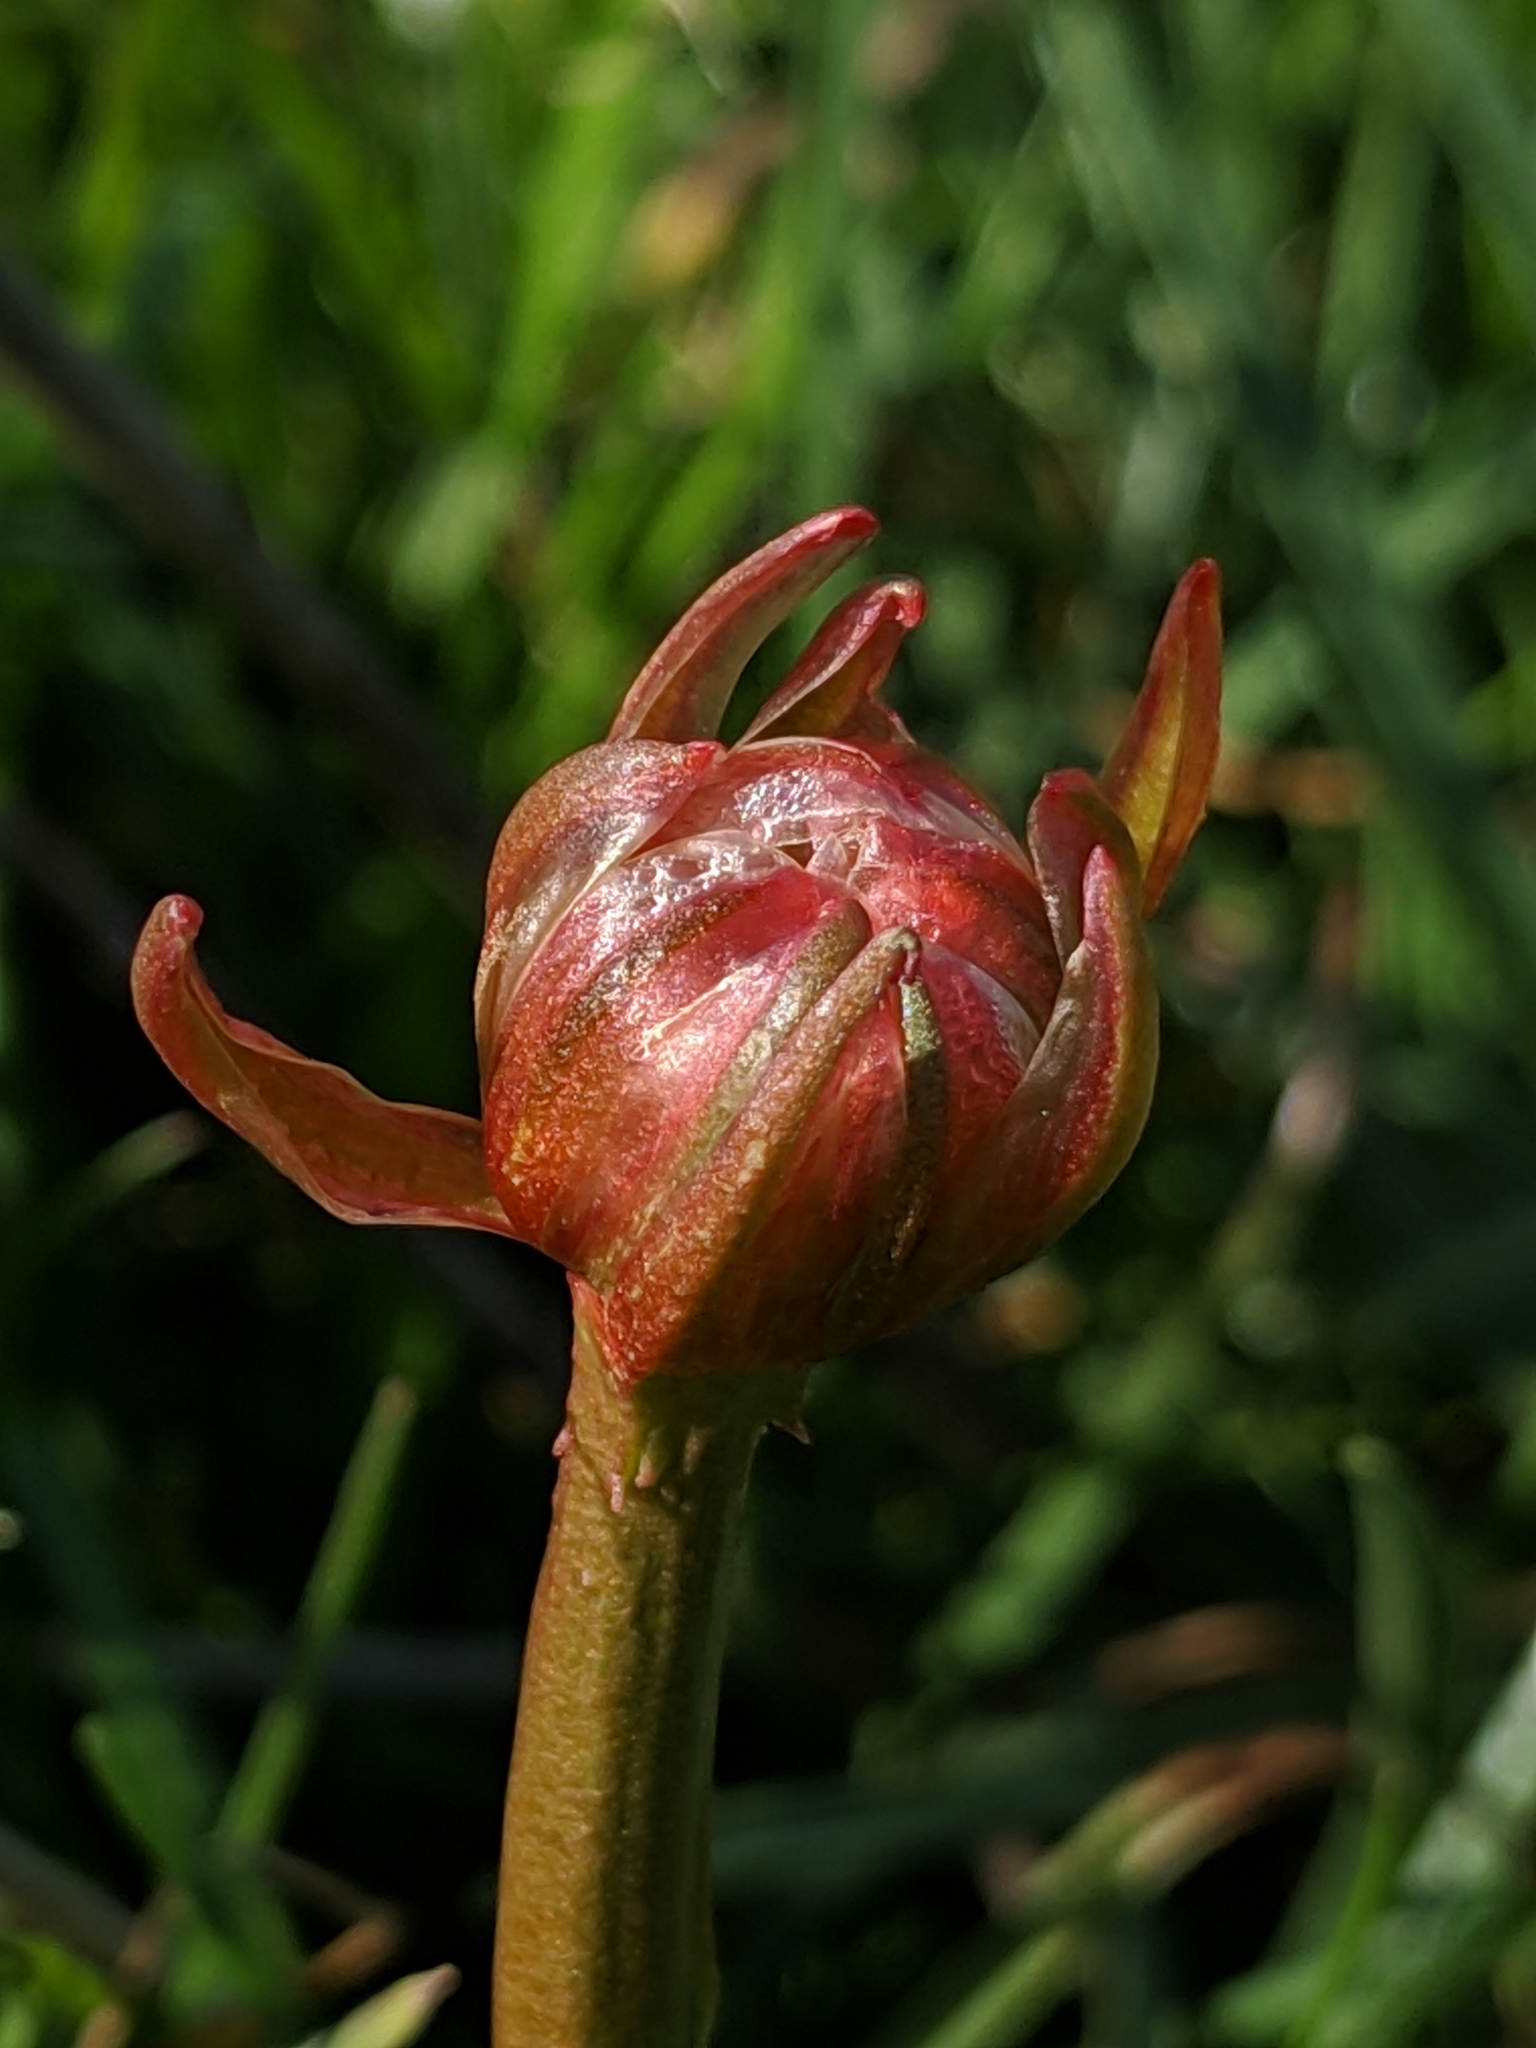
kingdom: Plantae
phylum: Tracheophyta
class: Magnoliopsida
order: Caryophyllales
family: Plumbaginaceae
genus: Armeria
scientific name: Armeria maritima
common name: Thrift
